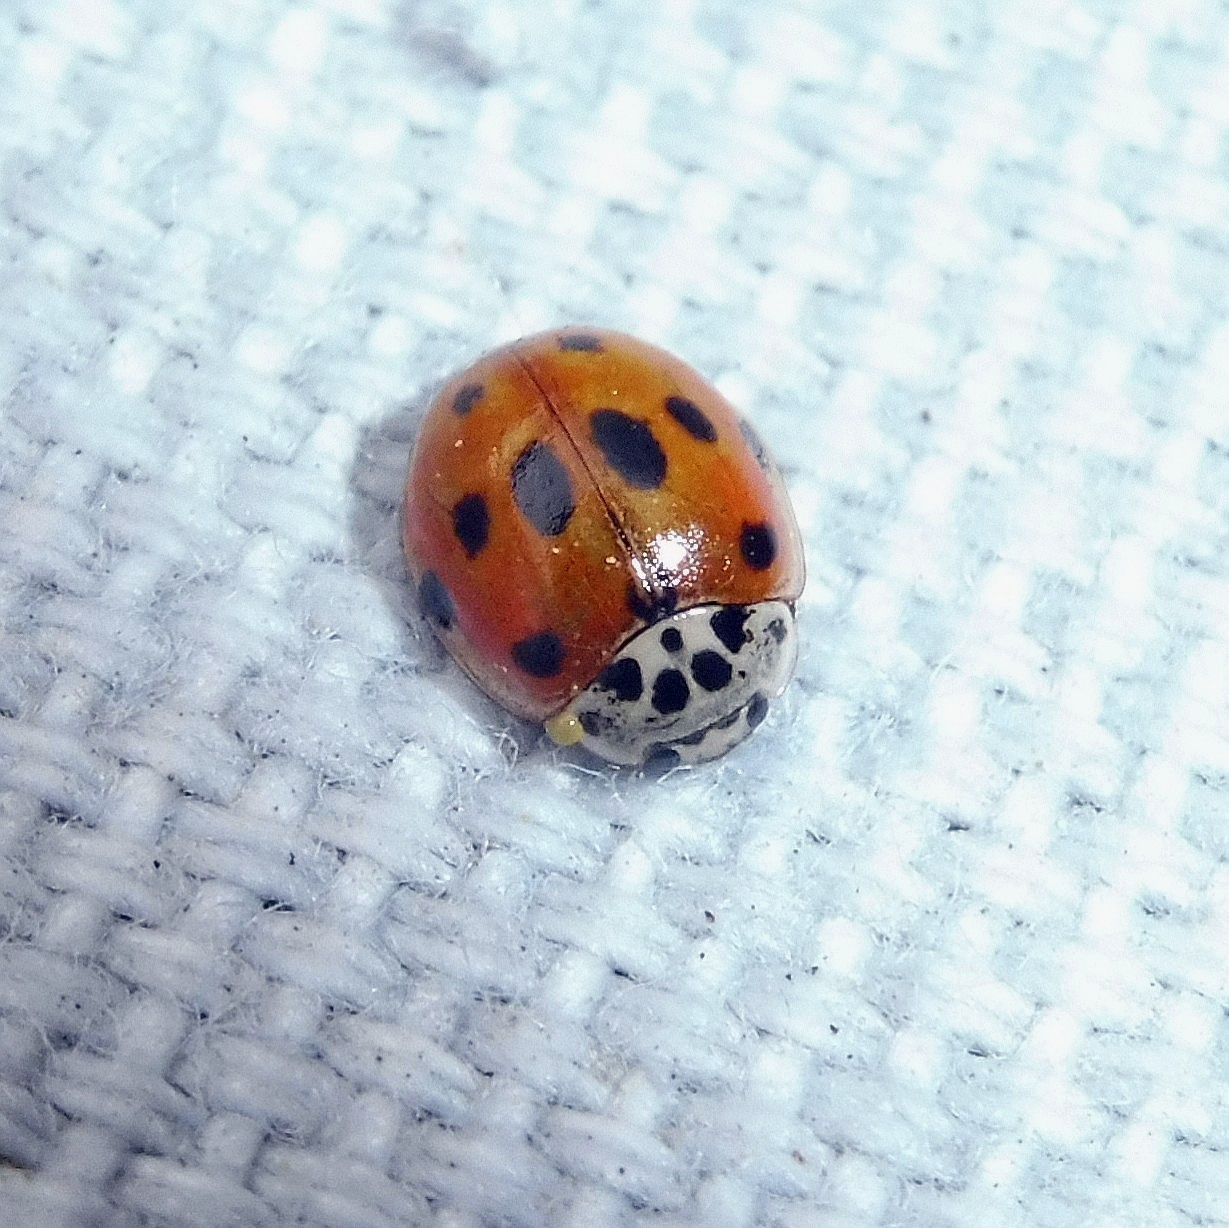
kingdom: Animalia
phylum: Arthropoda
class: Insecta
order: Coleoptera
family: Coccinellidae
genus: Adalia
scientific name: Adalia decempunctata
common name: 10-spot ladybird
